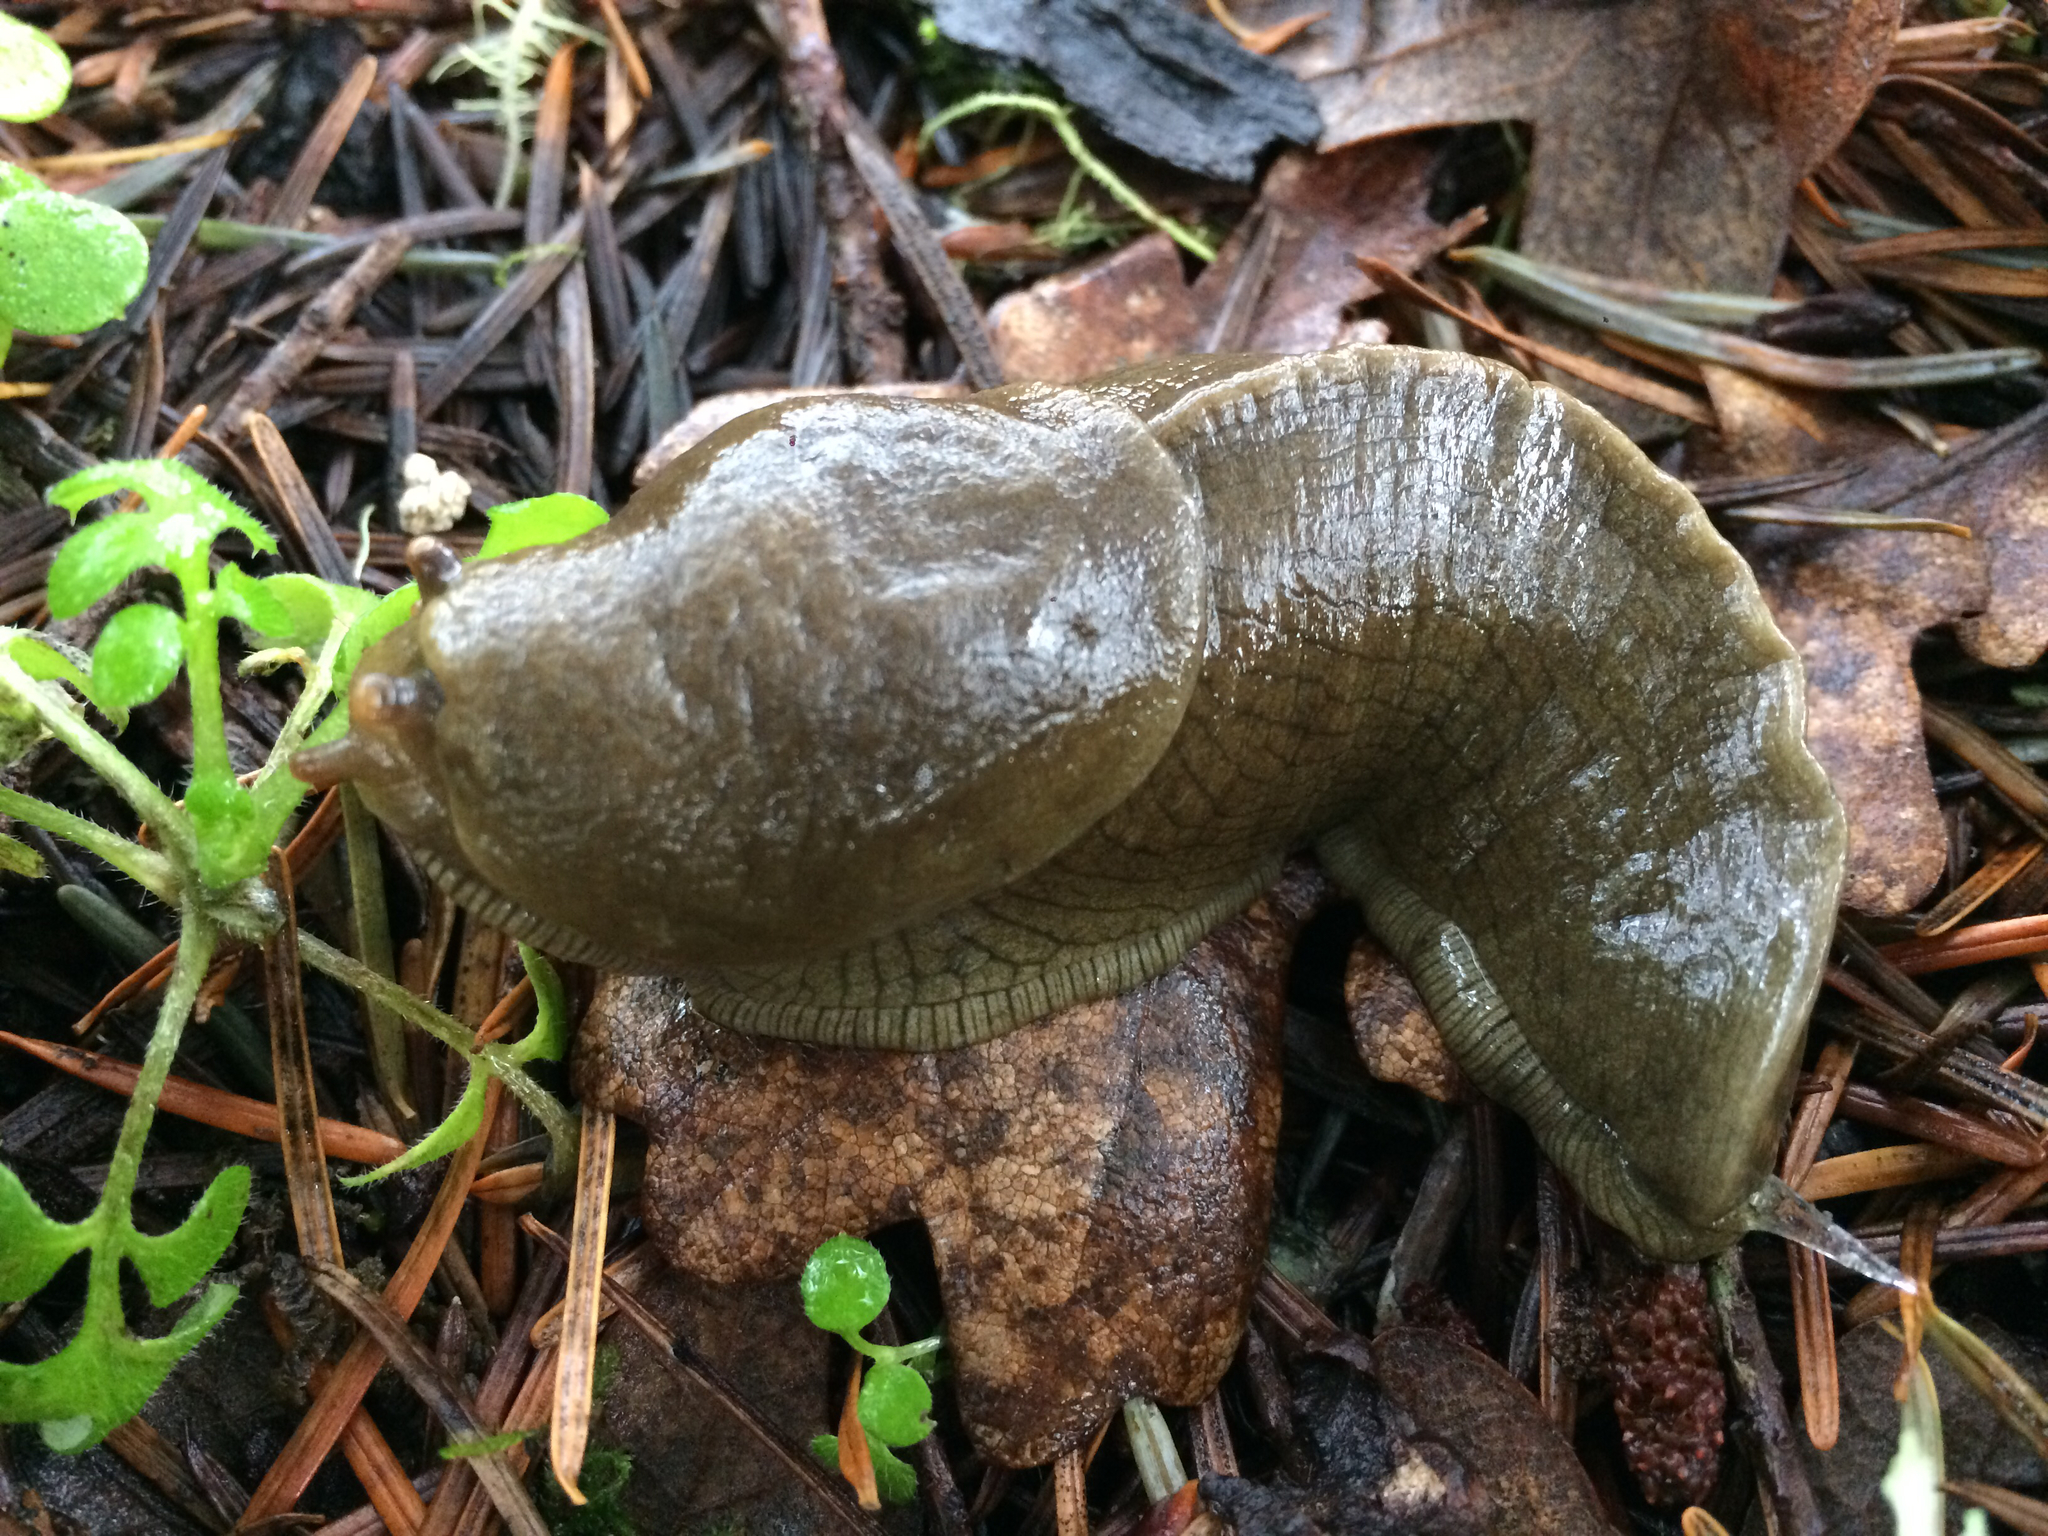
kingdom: Animalia
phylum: Mollusca
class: Gastropoda
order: Stylommatophora
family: Ariolimacidae
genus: Ariolimax
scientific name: Ariolimax columbianus
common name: Pacific banana slug
